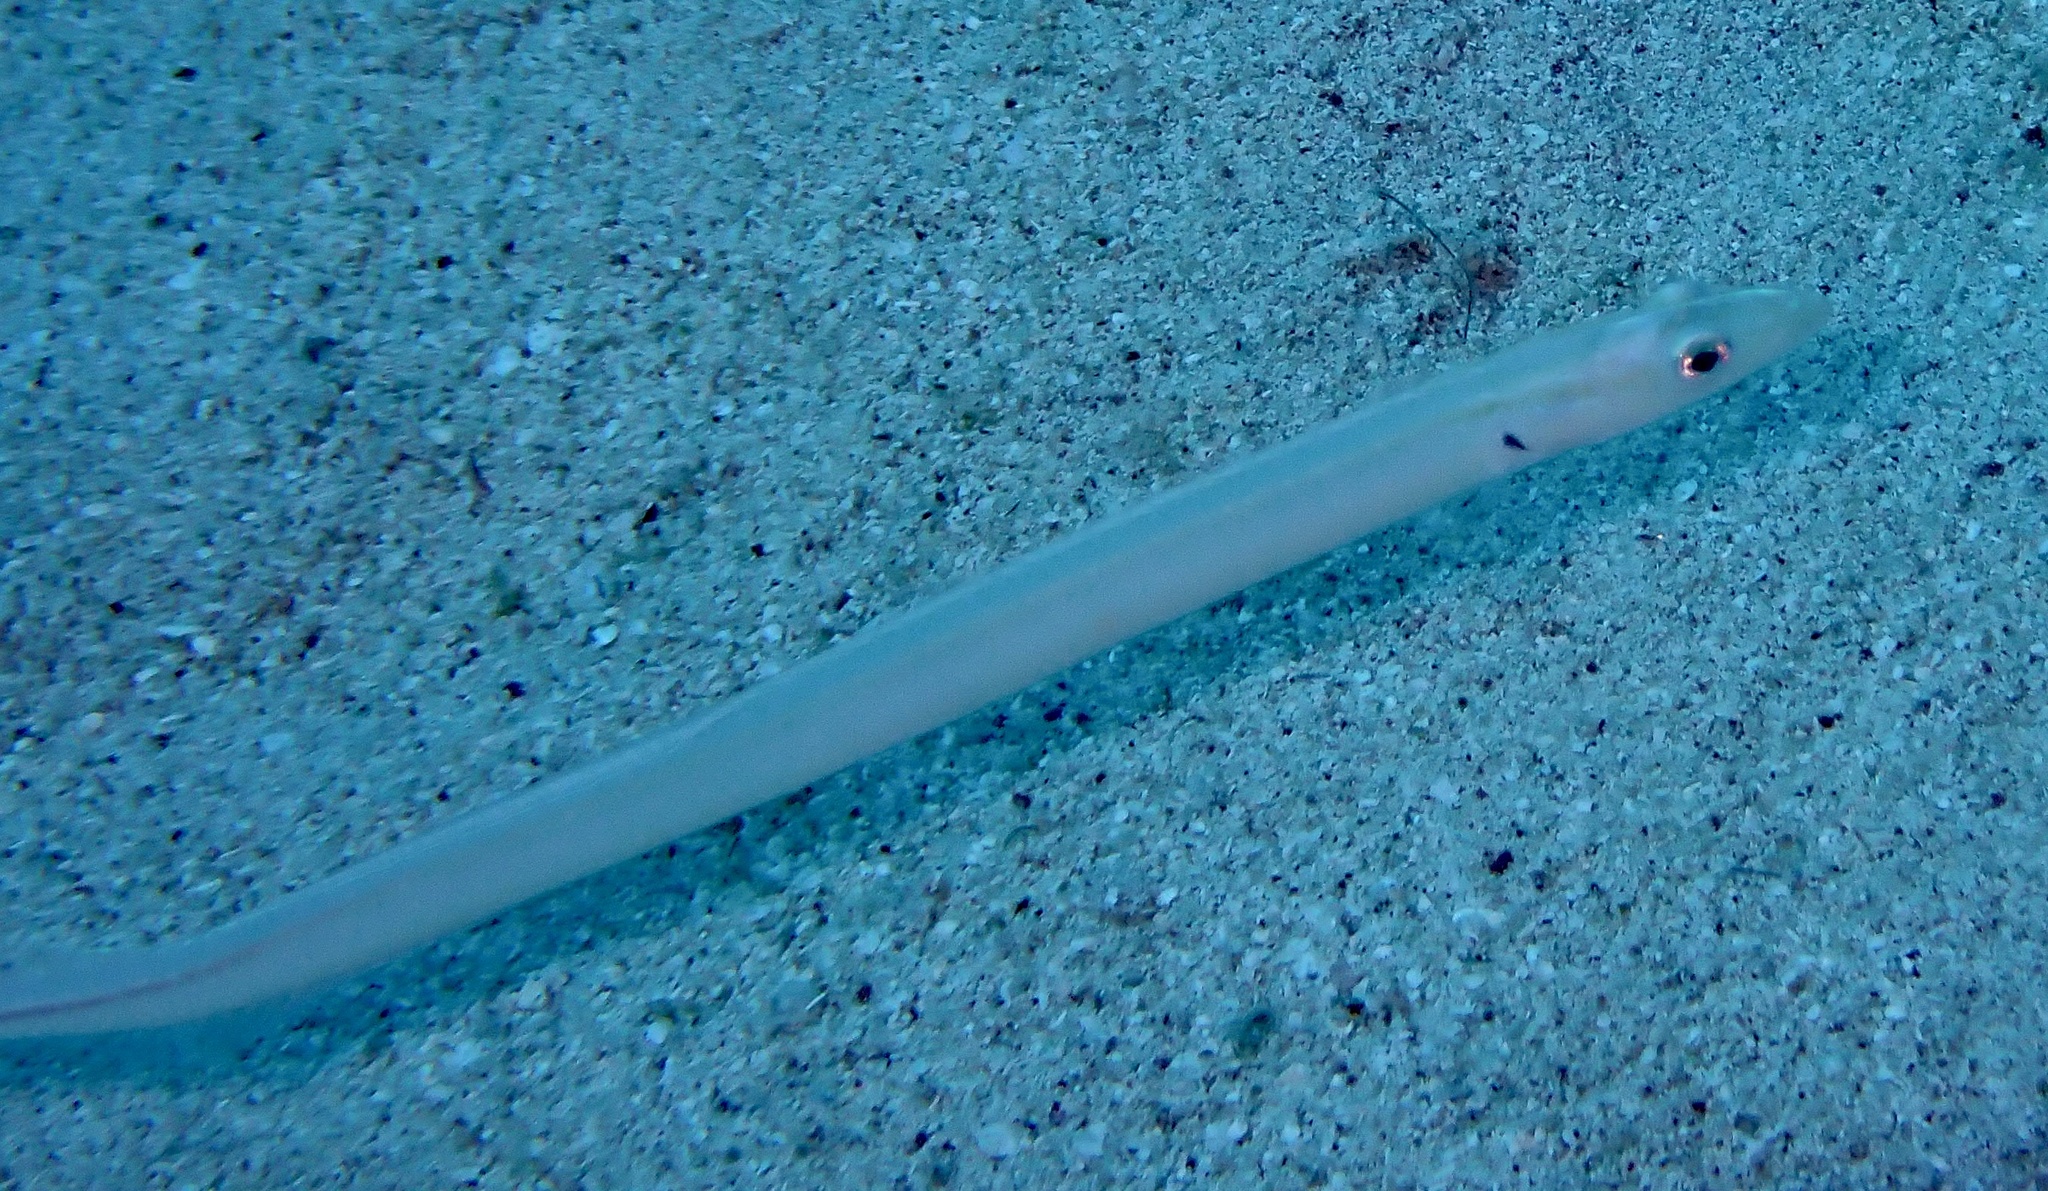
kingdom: Animalia
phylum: Chordata
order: Perciformes
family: Microdesmidae
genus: Gunnellichthys
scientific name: Gunnellichthys monostigma
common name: Onespot wormfish
